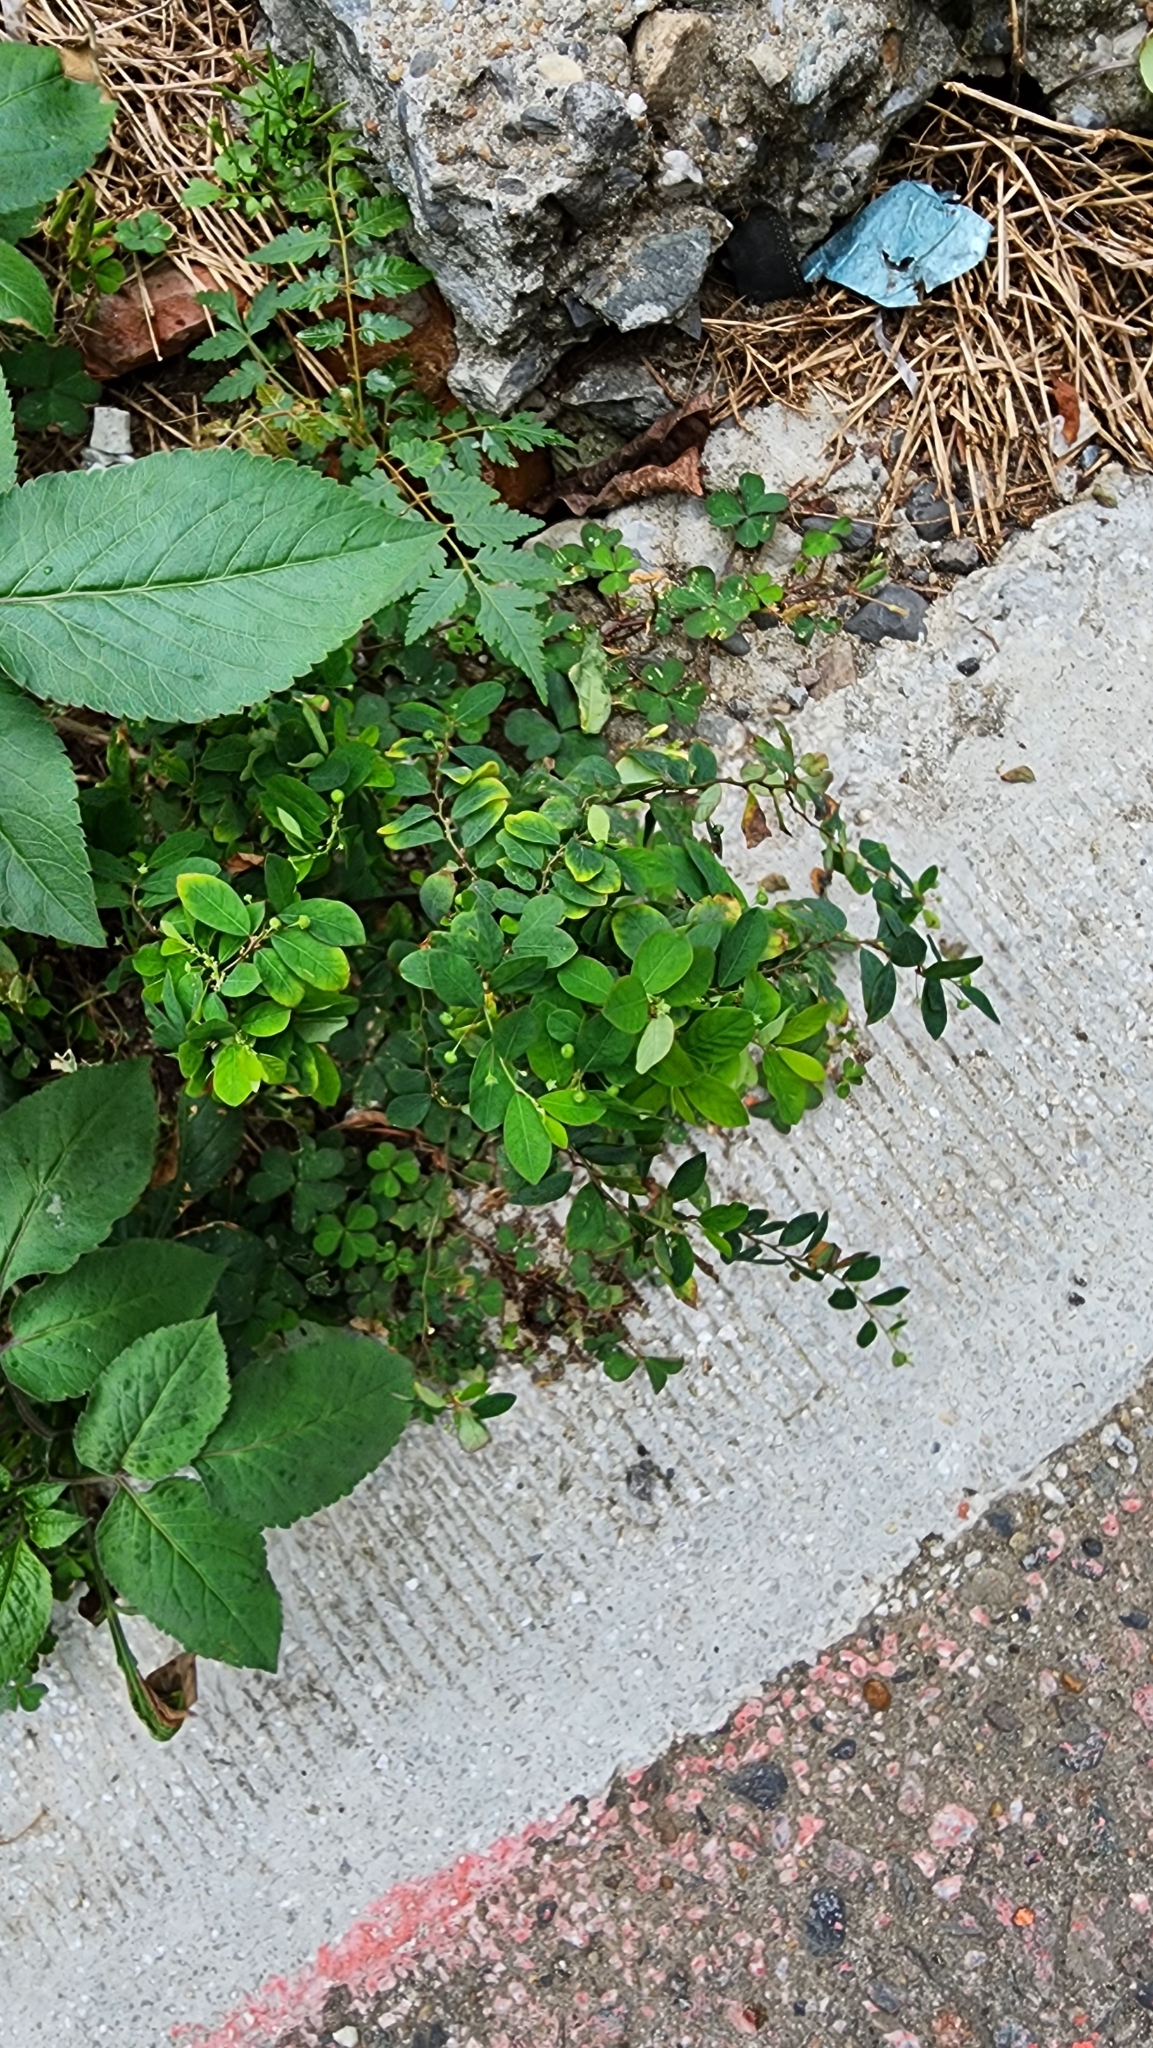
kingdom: Plantae
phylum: Tracheophyta
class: Magnoliopsida
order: Malpighiales
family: Phyllanthaceae
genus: Phyllanthus
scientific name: Phyllanthus tenellus
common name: Mascarene island leaf-flower
